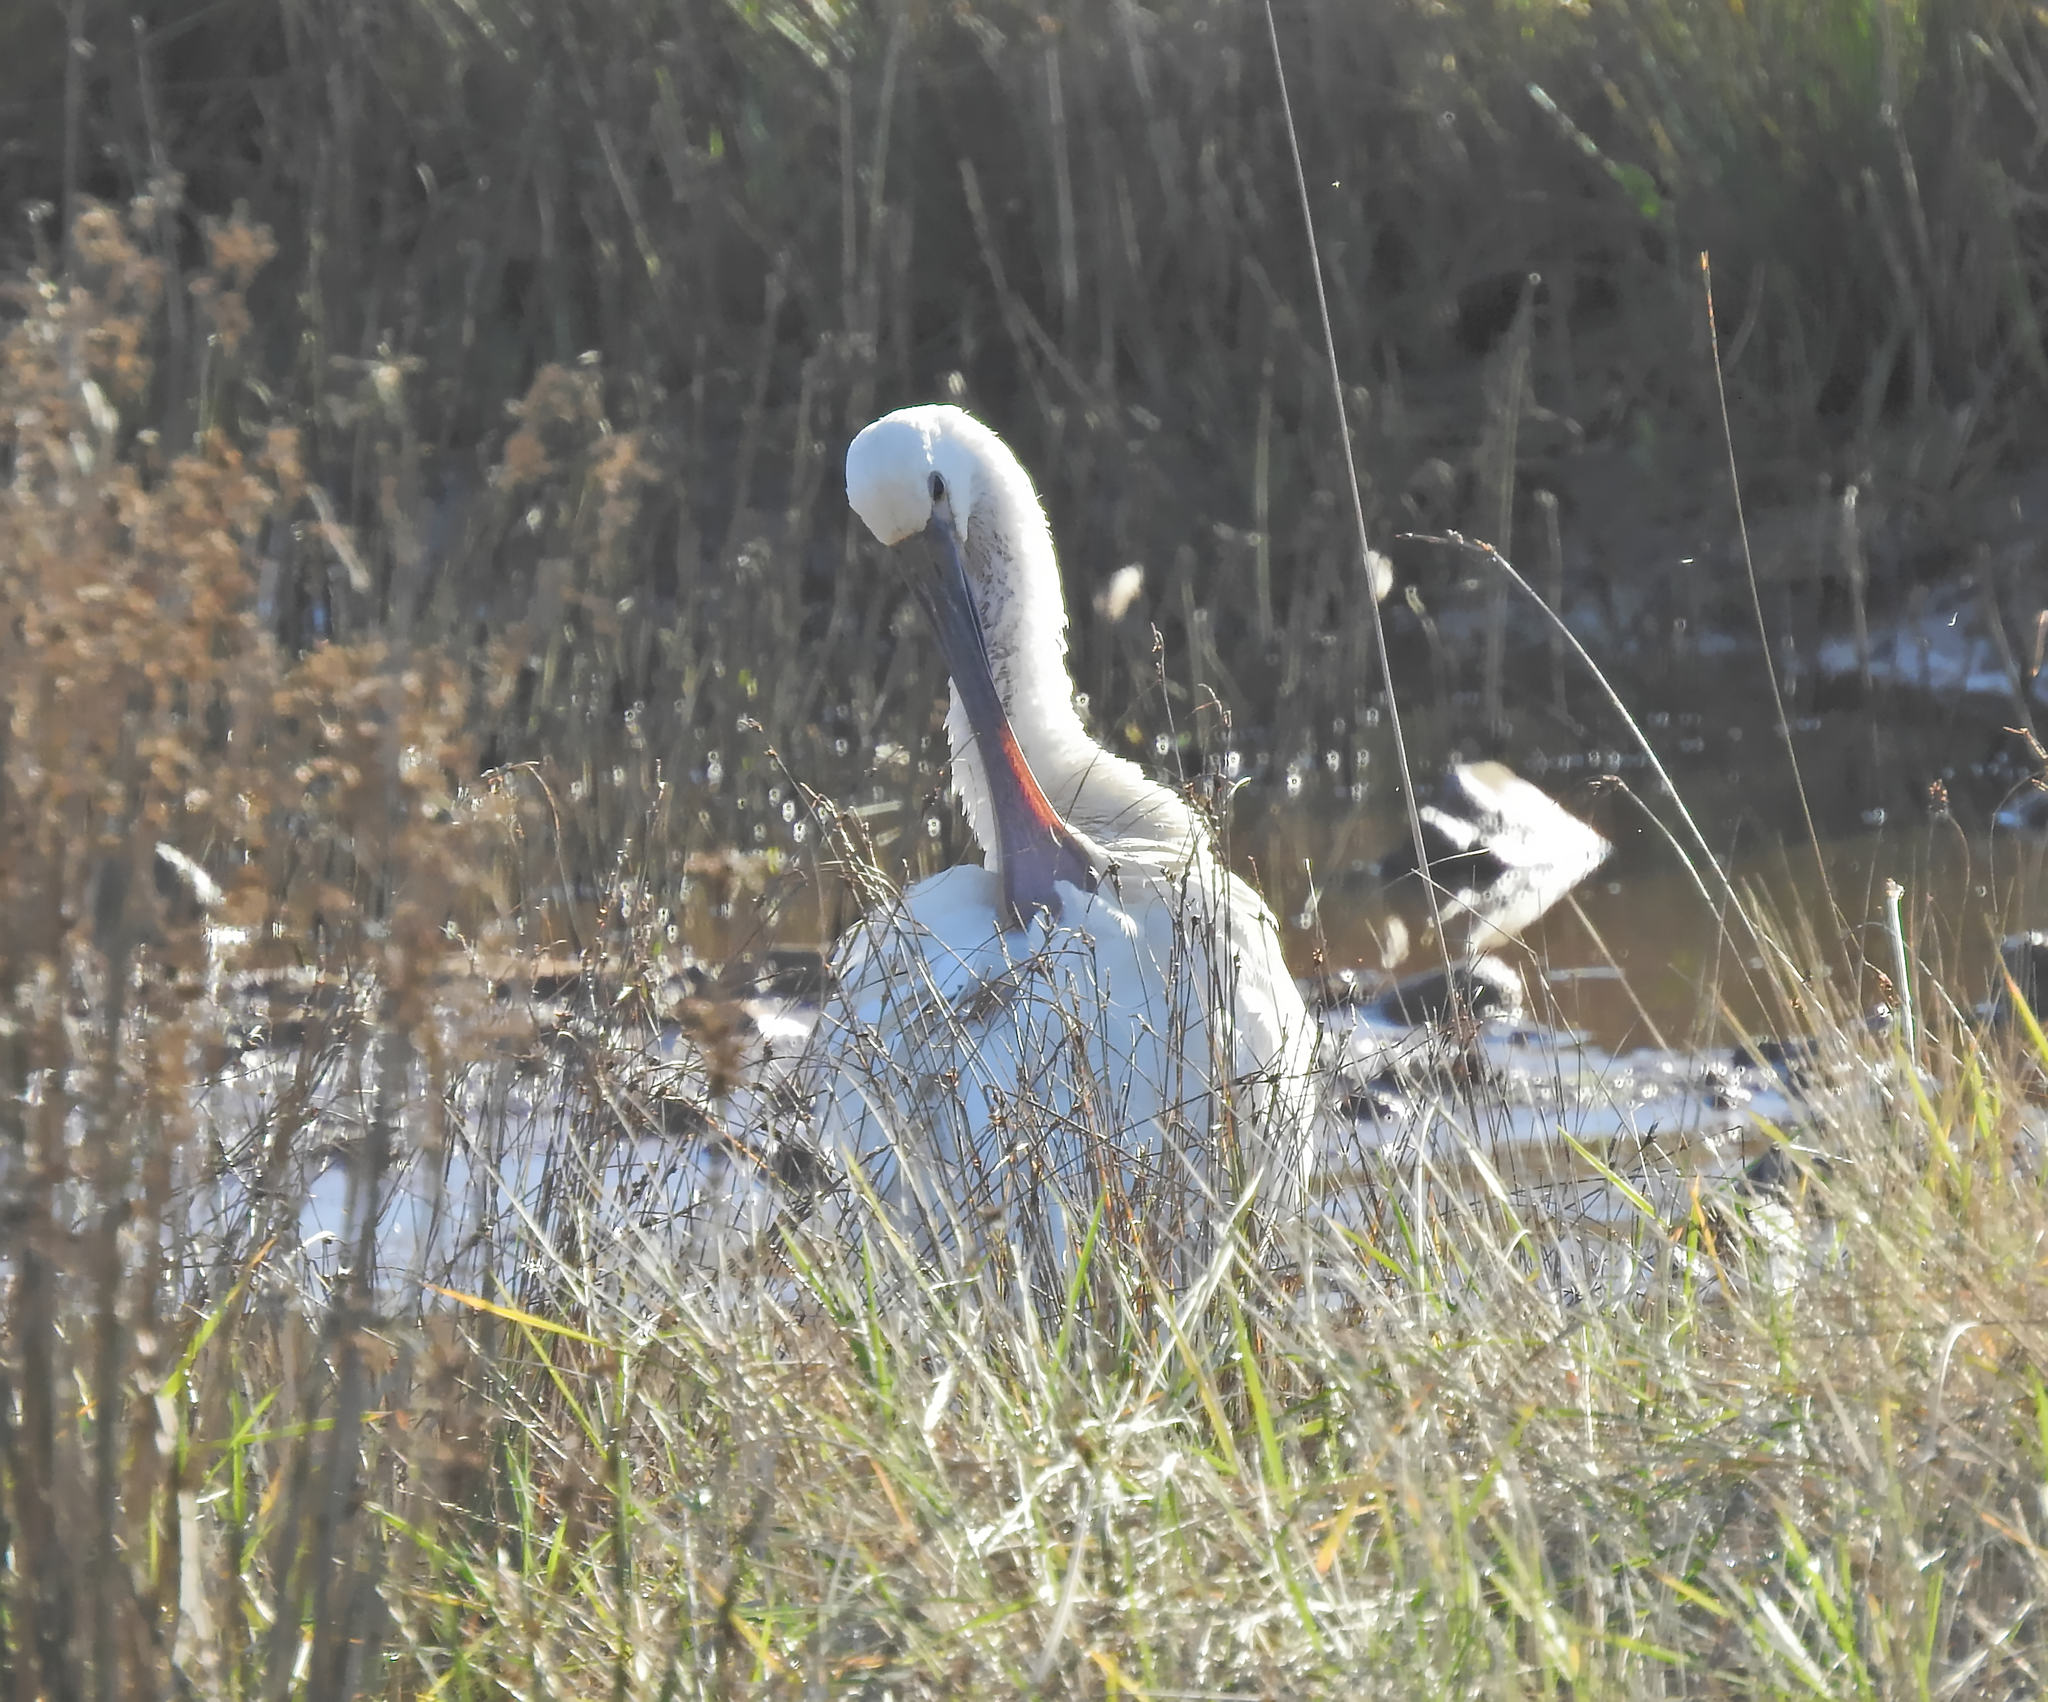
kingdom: Animalia
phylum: Chordata
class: Aves
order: Pelecaniformes
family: Threskiornithidae
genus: Platalea
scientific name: Platalea leucorodia
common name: Eurasian spoonbill
